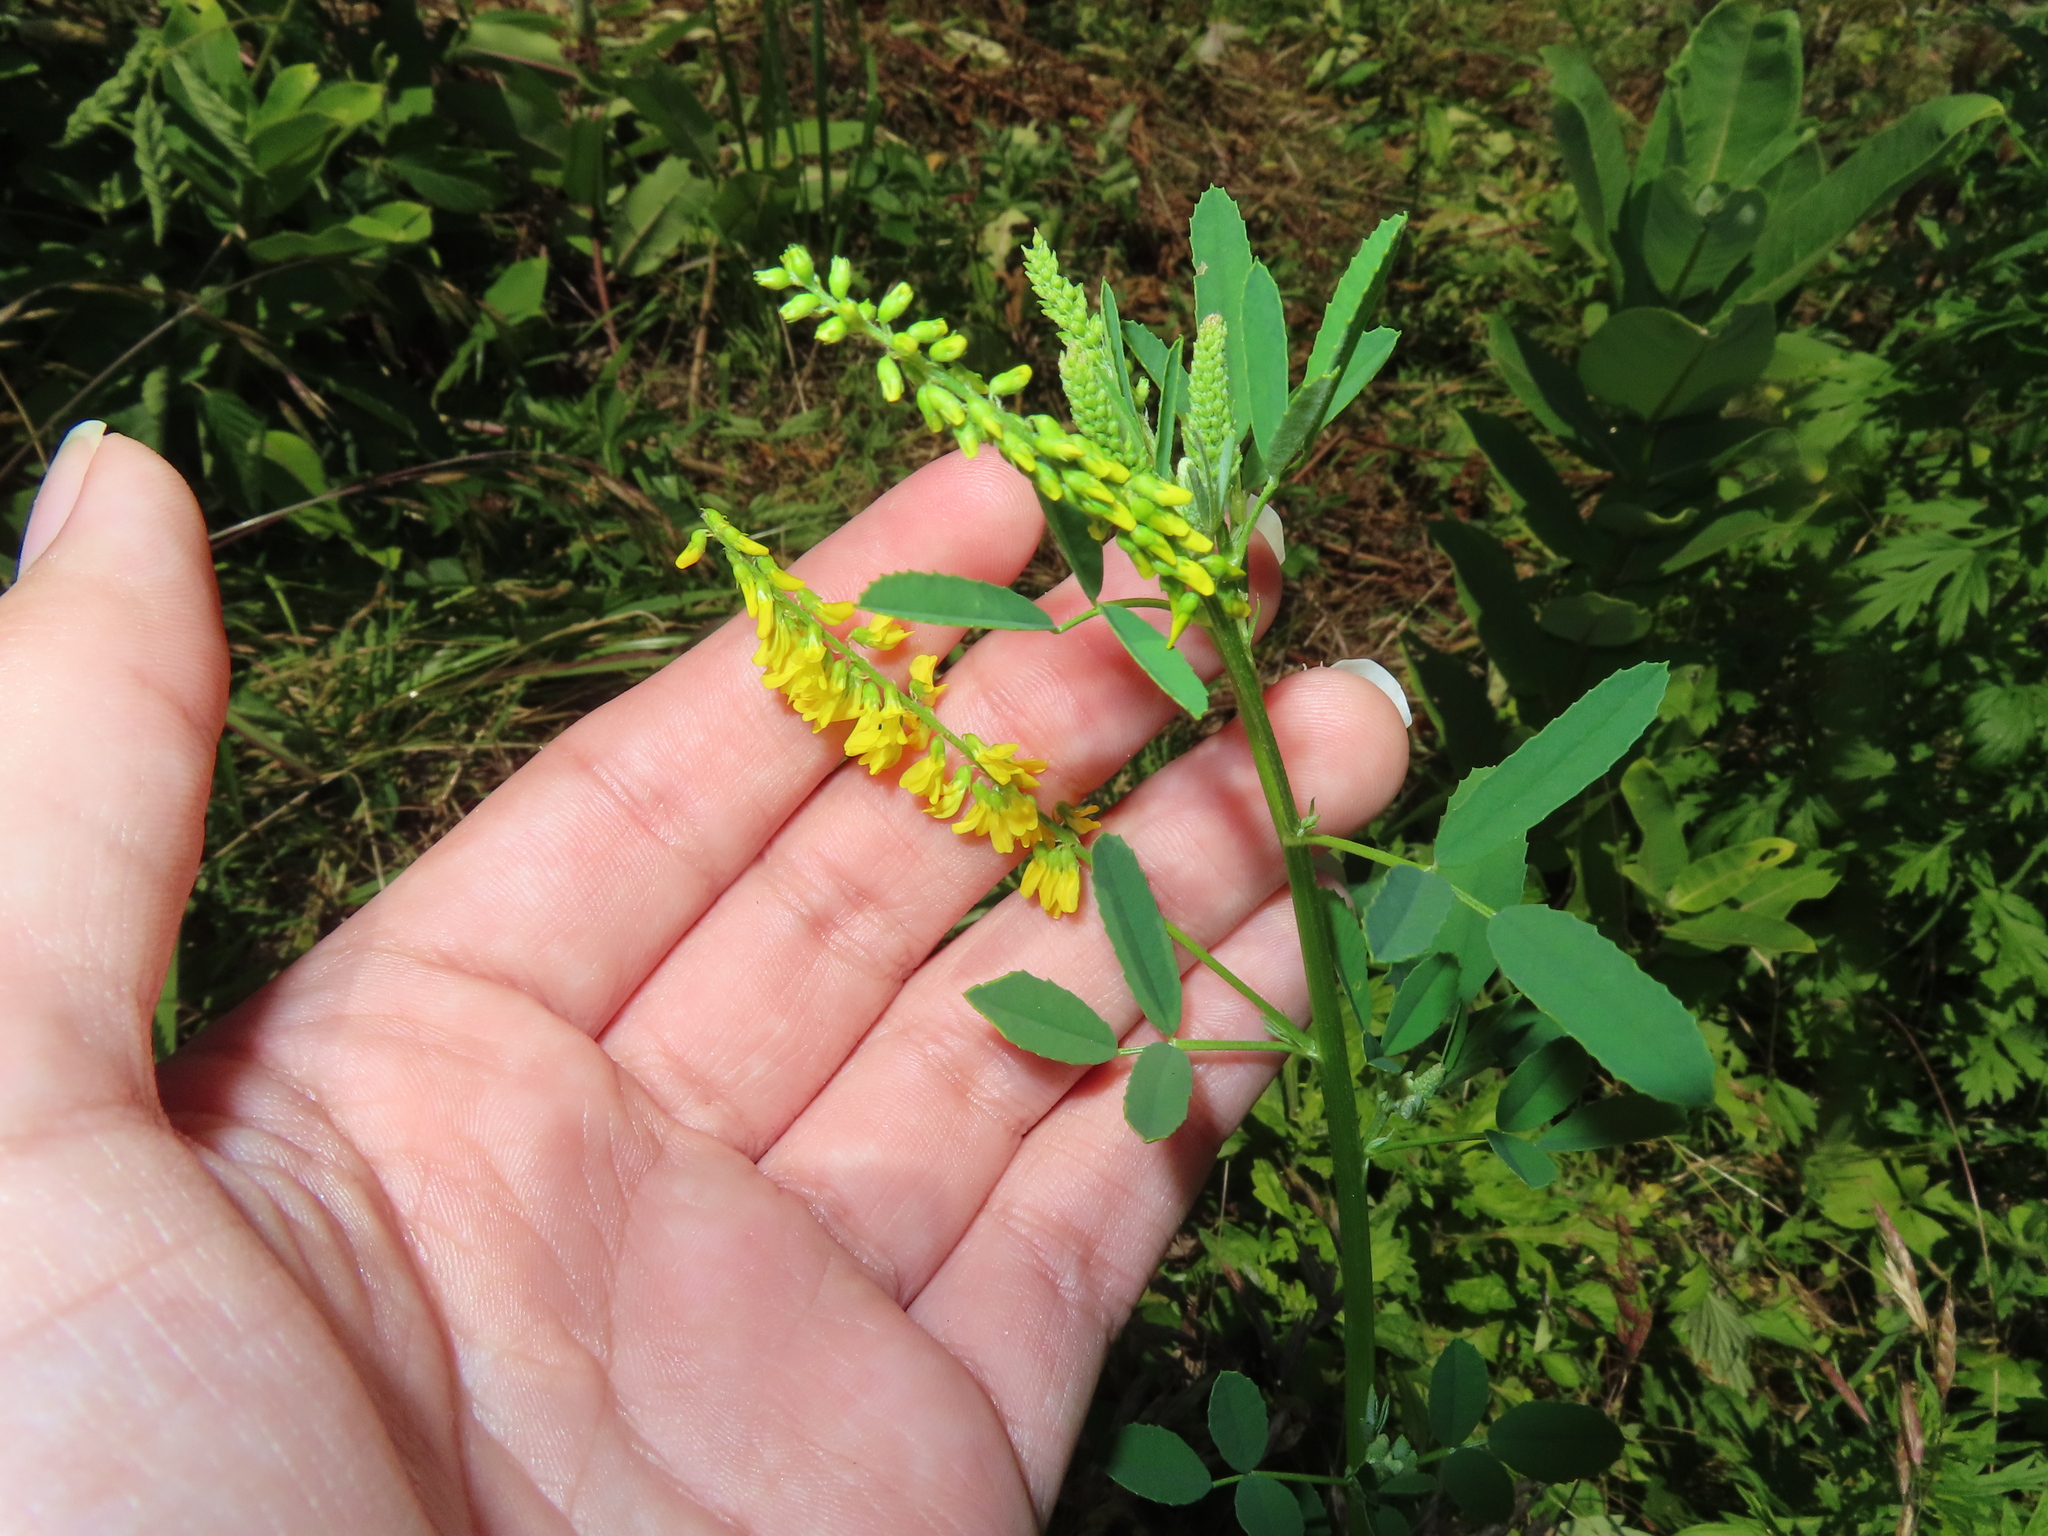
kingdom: Plantae
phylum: Tracheophyta
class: Magnoliopsida
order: Fabales
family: Fabaceae
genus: Melilotus
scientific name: Melilotus officinalis
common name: Sweetclover
